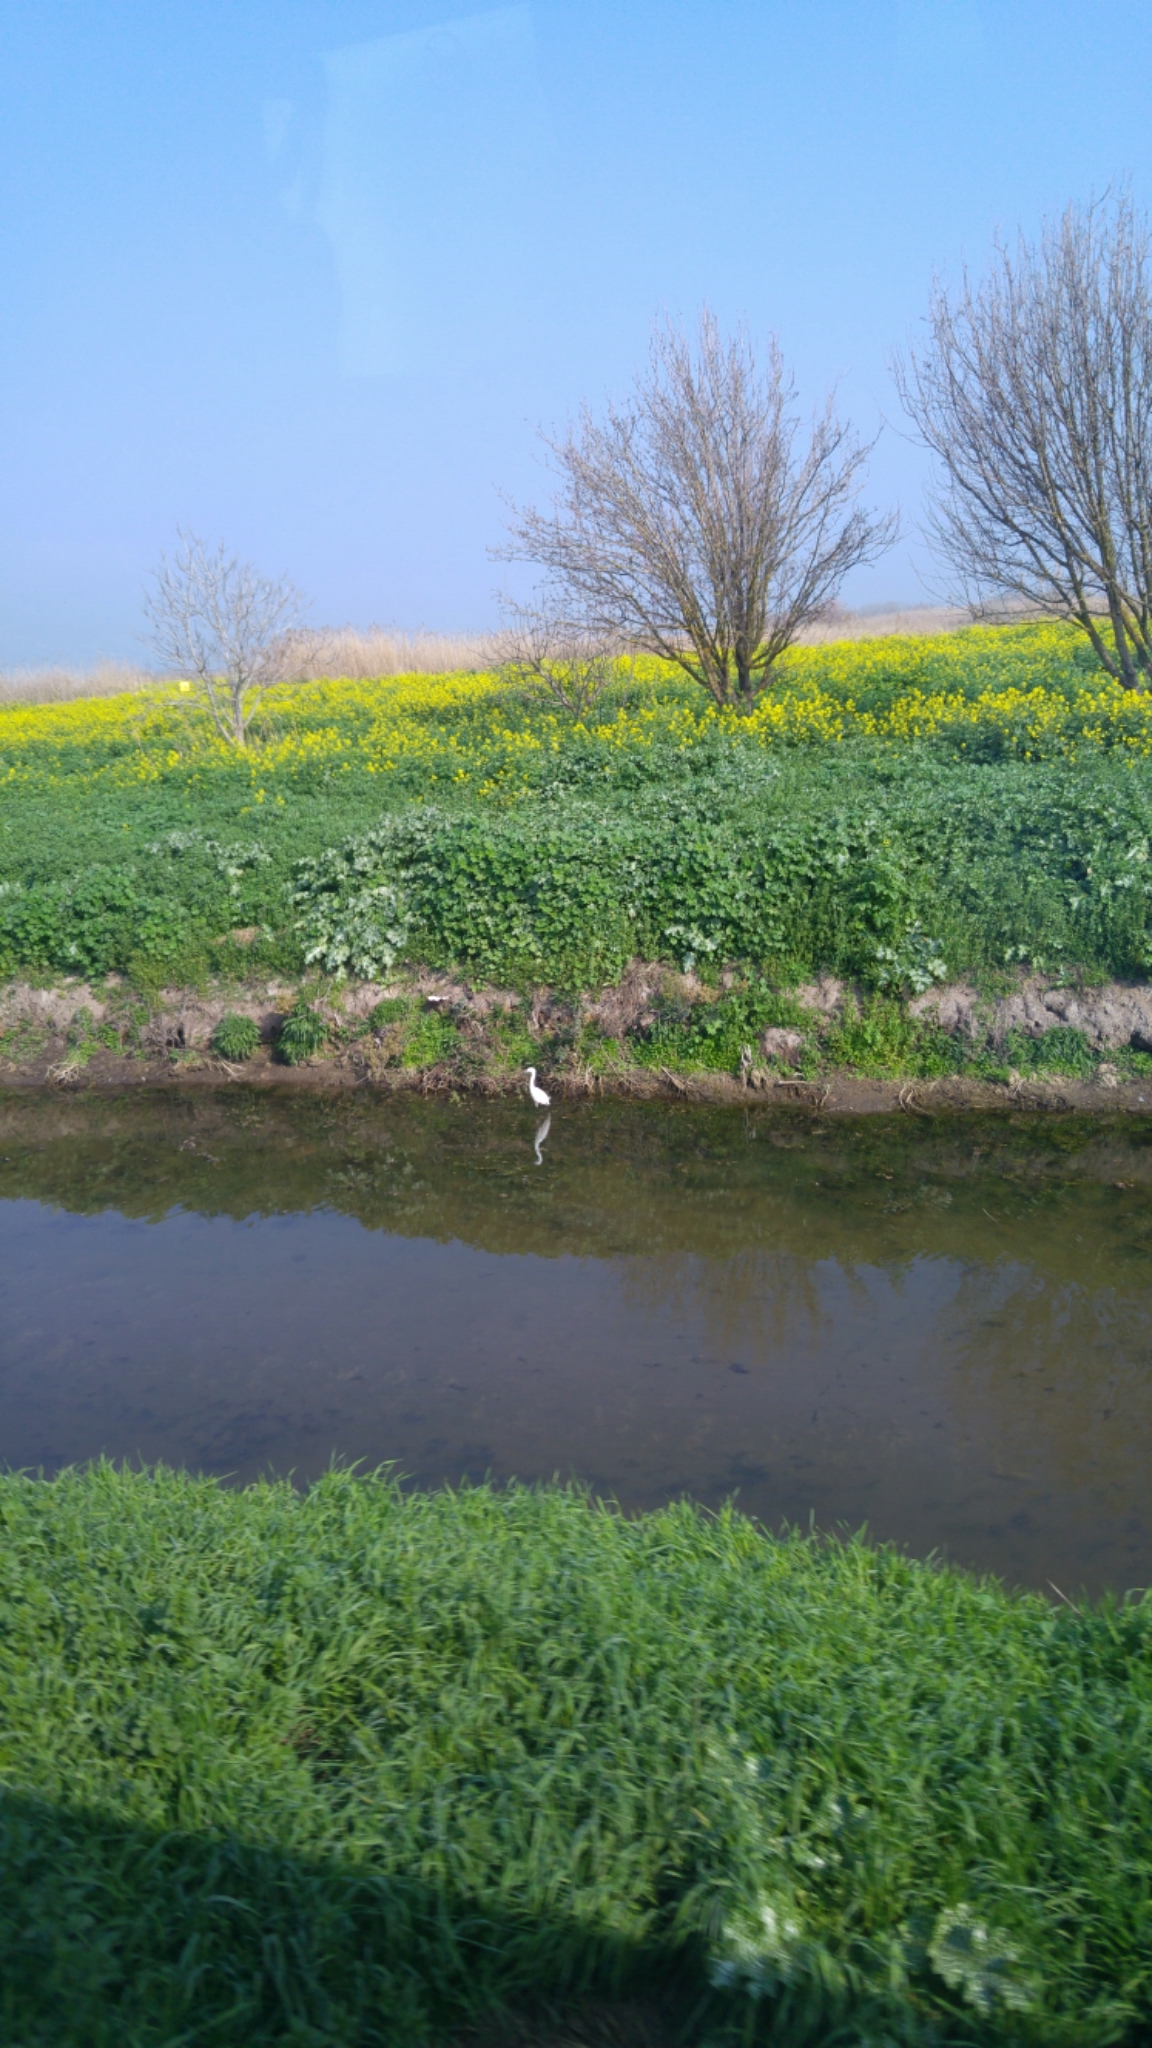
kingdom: Animalia
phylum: Chordata
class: Aves
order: Pelecaniformes
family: Ardeidae
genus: Egretta
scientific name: Egretta garzetta
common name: Little egret
